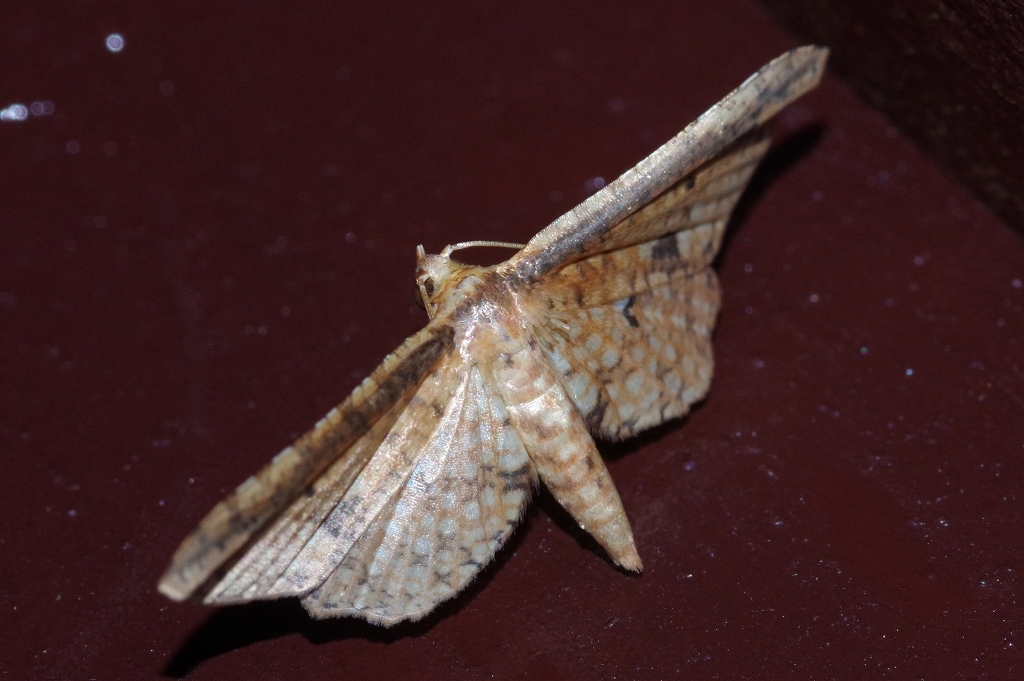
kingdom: Animalia
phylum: Arthropoda
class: Insecta
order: Lepidoptera
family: Thyrididae
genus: Pharambara
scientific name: Pharambara splendida
